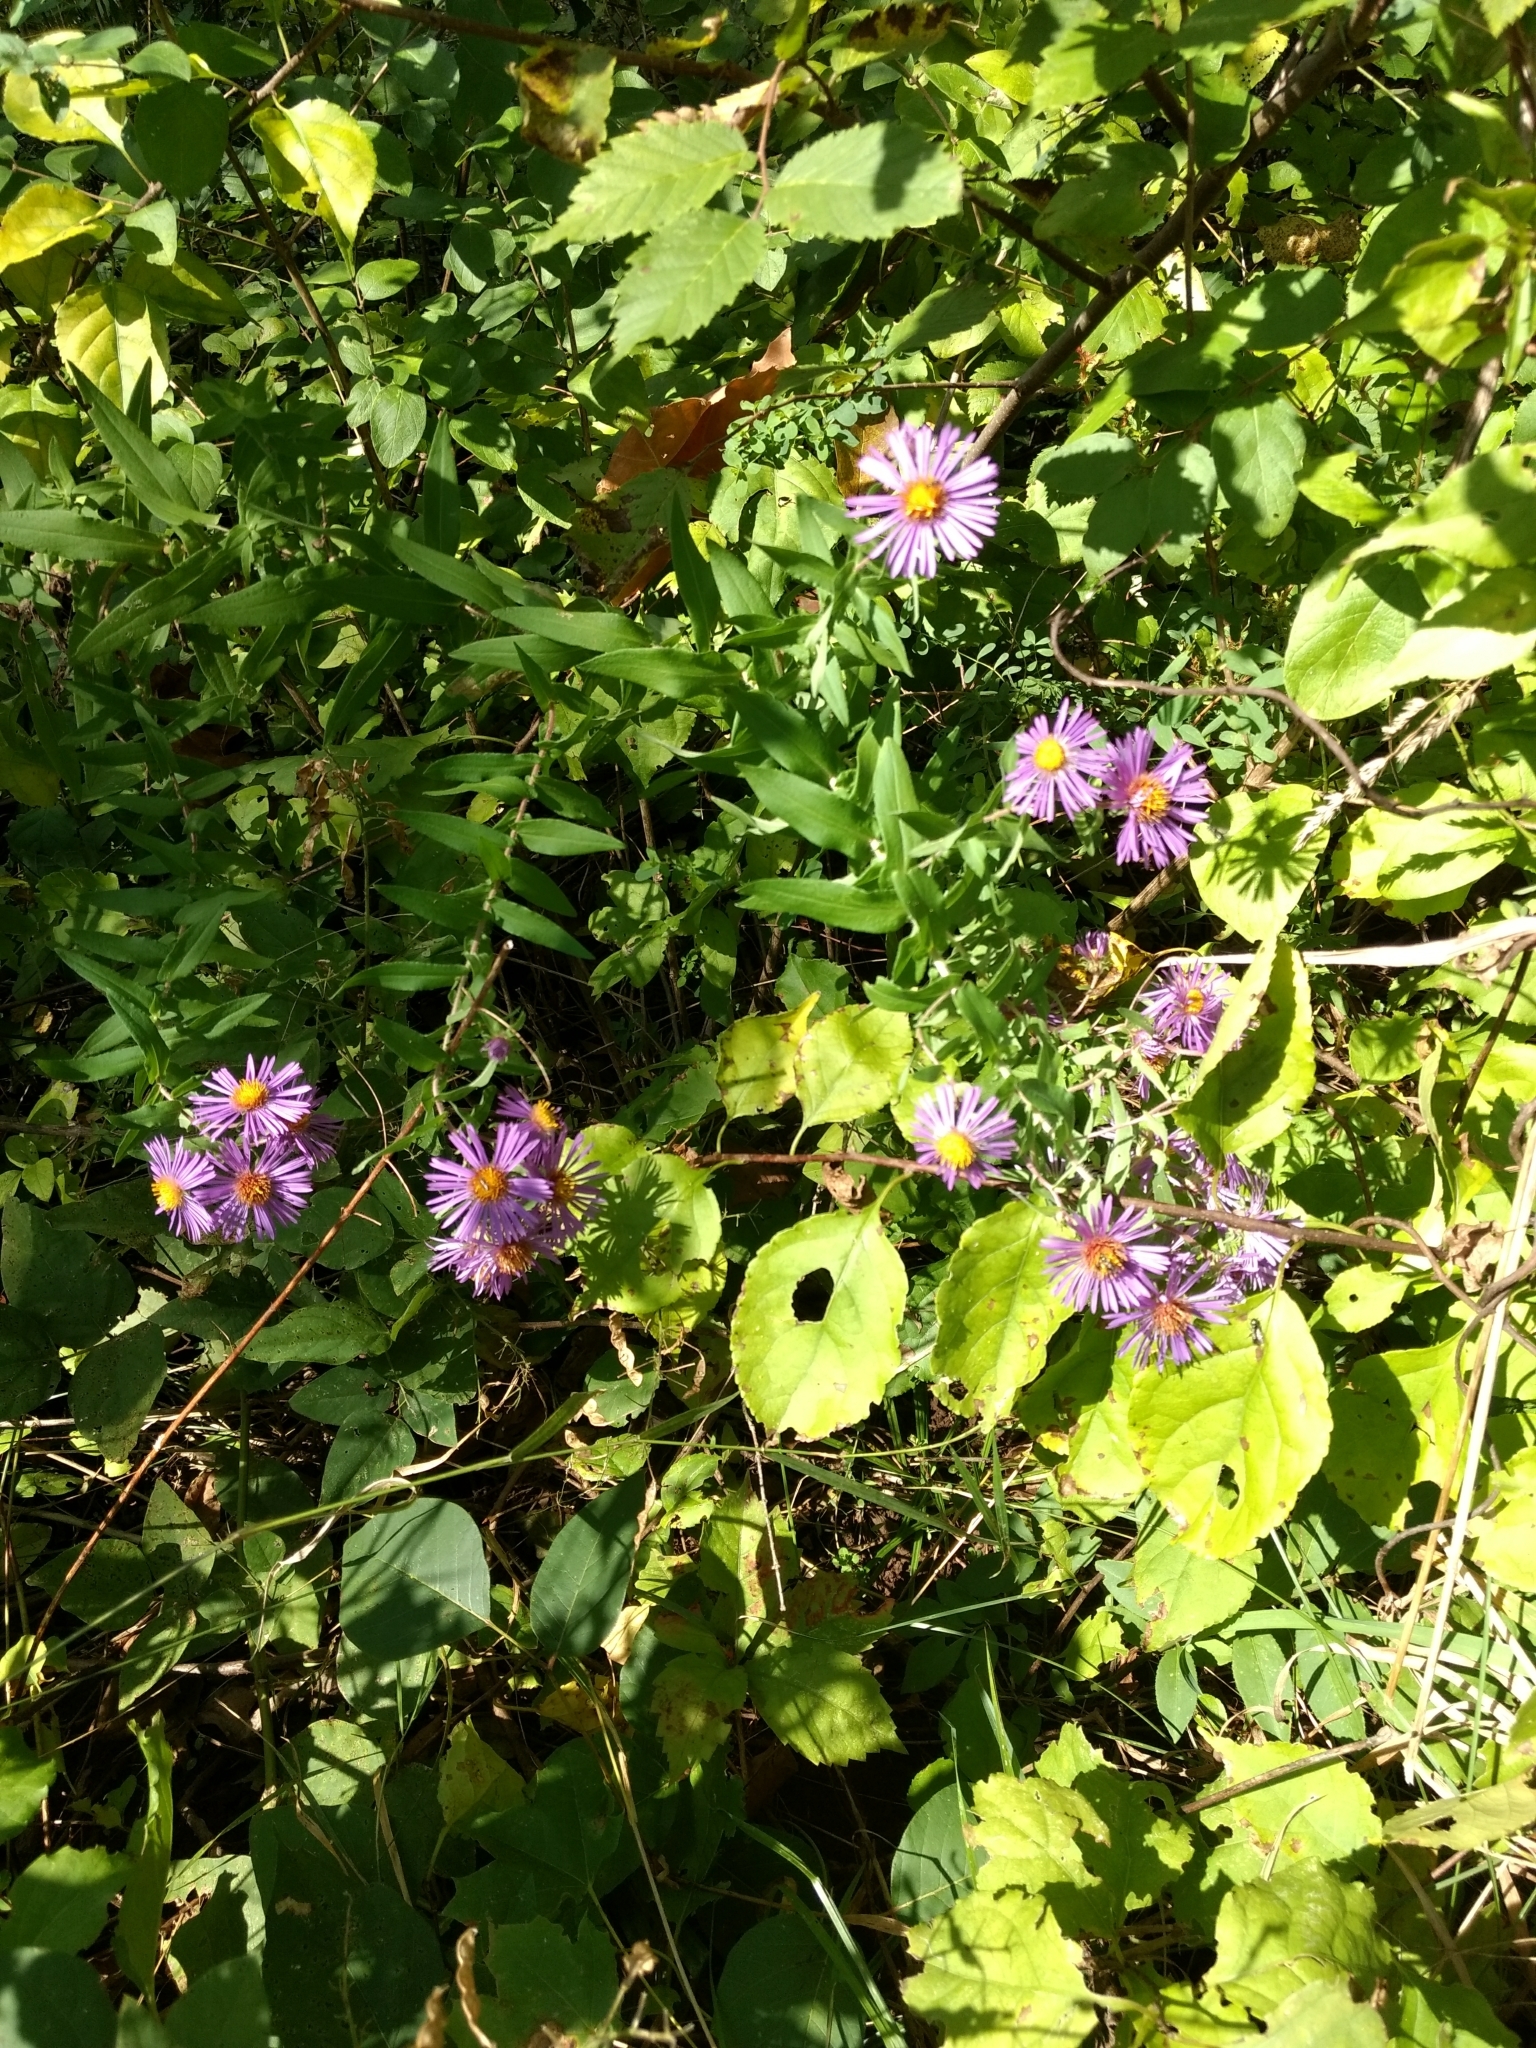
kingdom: Plantae
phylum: Tracheophyta
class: Magnoliopsida
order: Asterales
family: Asteraceae
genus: Symphyotrichum
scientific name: Symphyotrichum novae-angliae
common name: Michaelmas daisy
